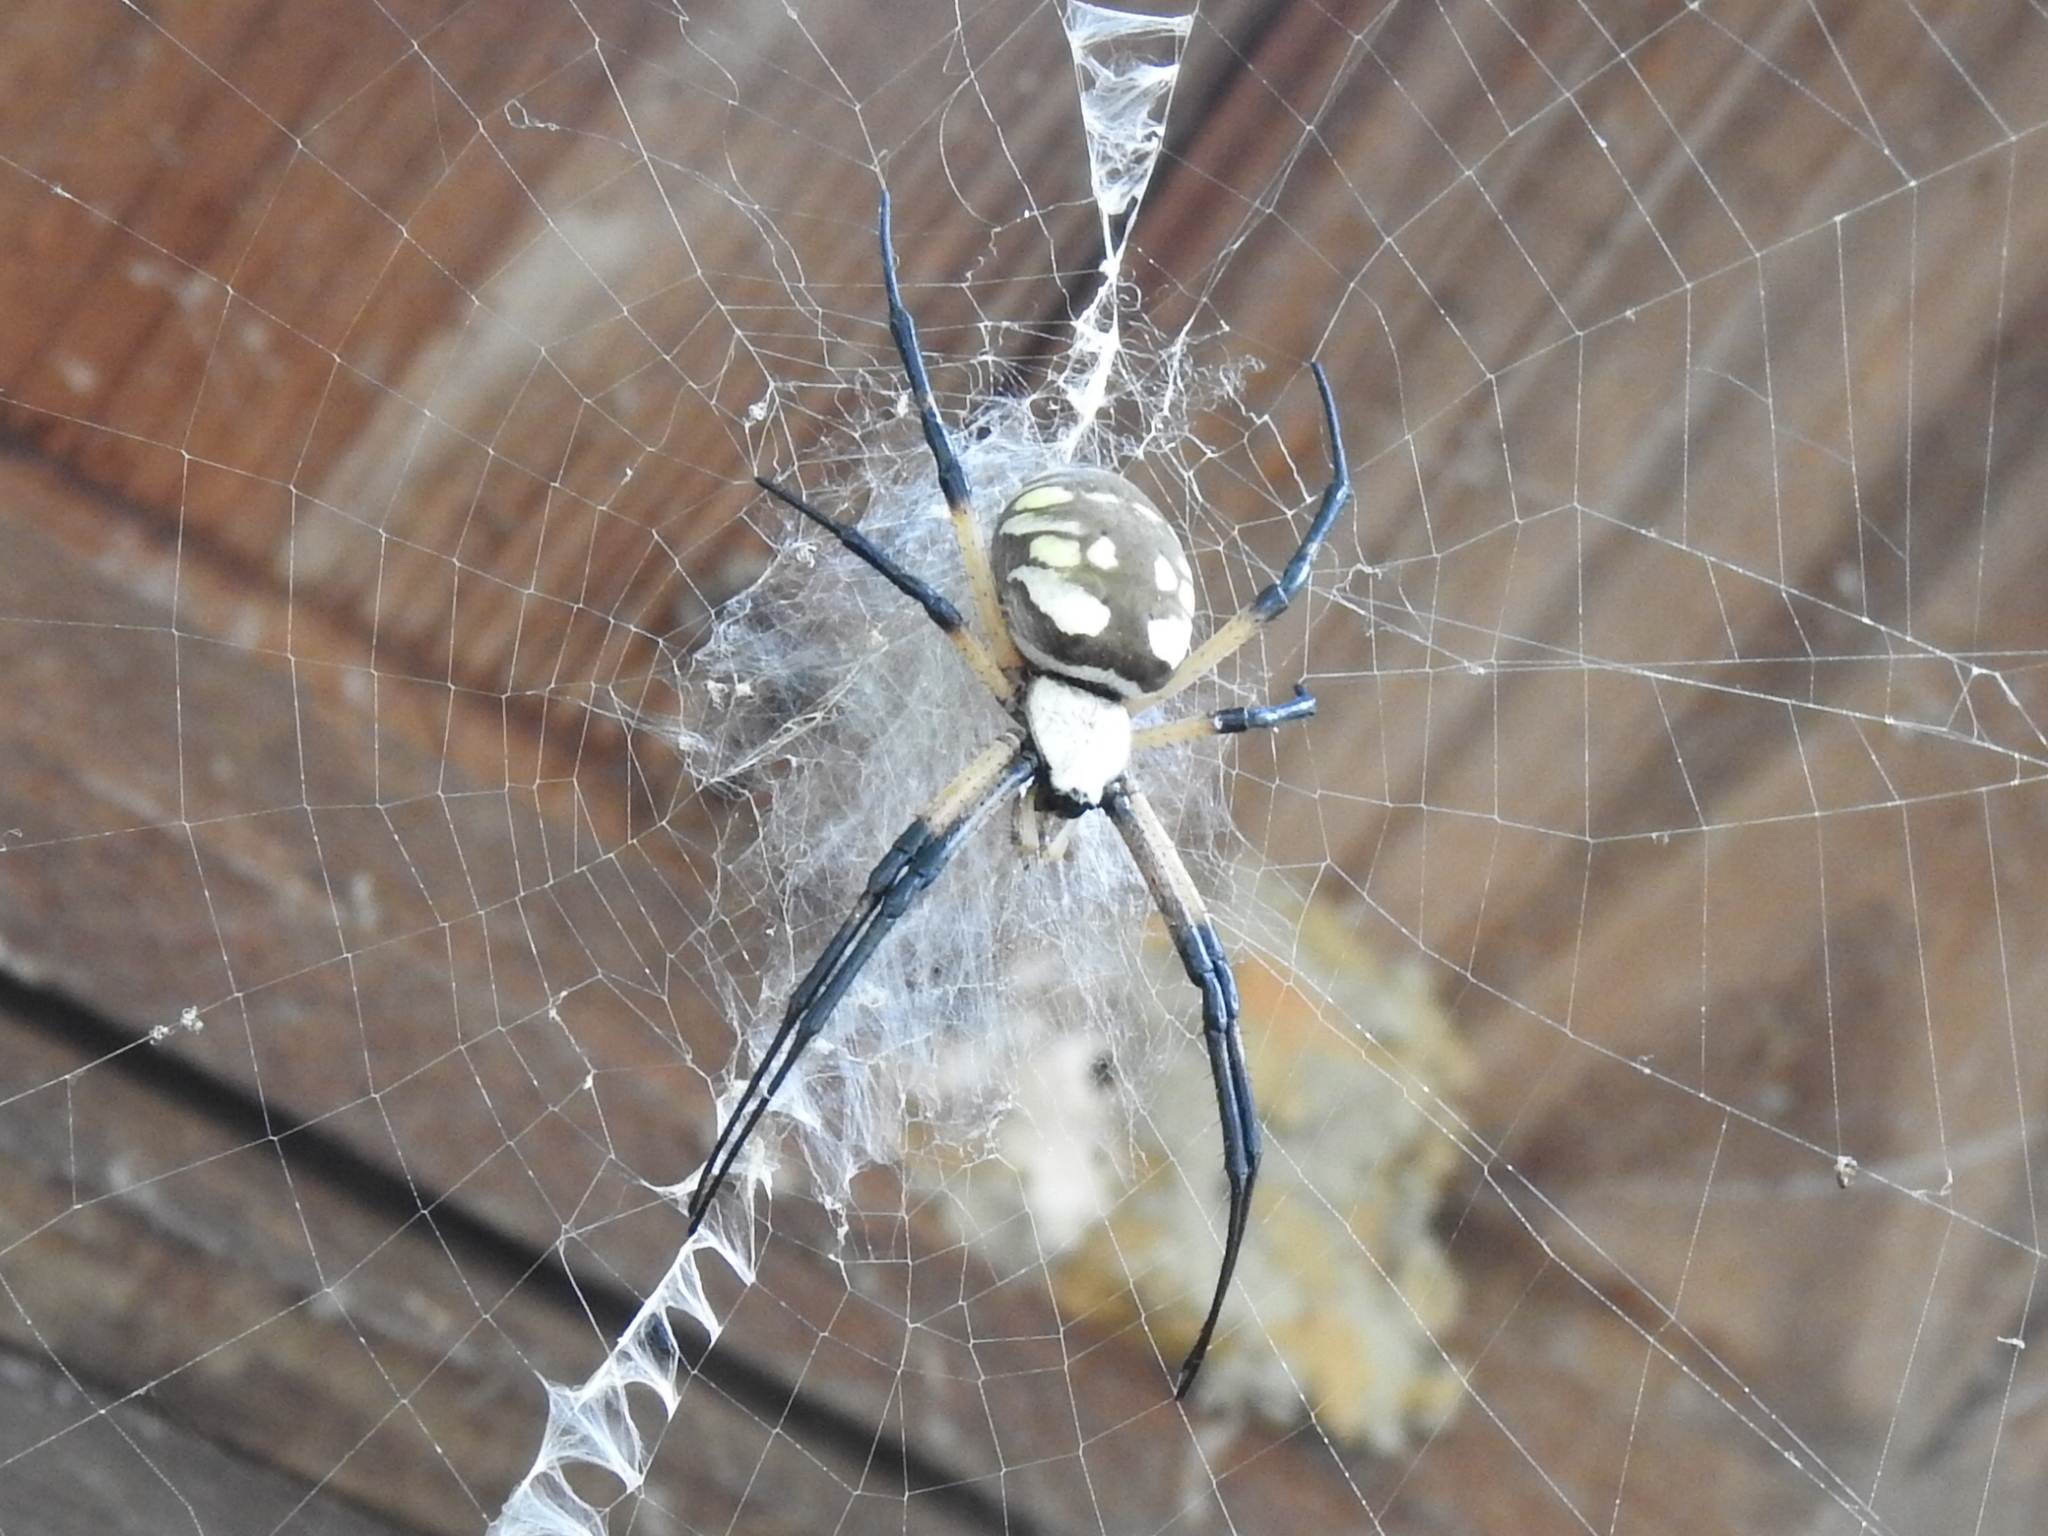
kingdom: Animalia
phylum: Arthropoda
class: Arachnida
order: Araneae
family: Araneidae
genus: Argiope
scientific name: Argiope aurantia
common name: Orb weavers
